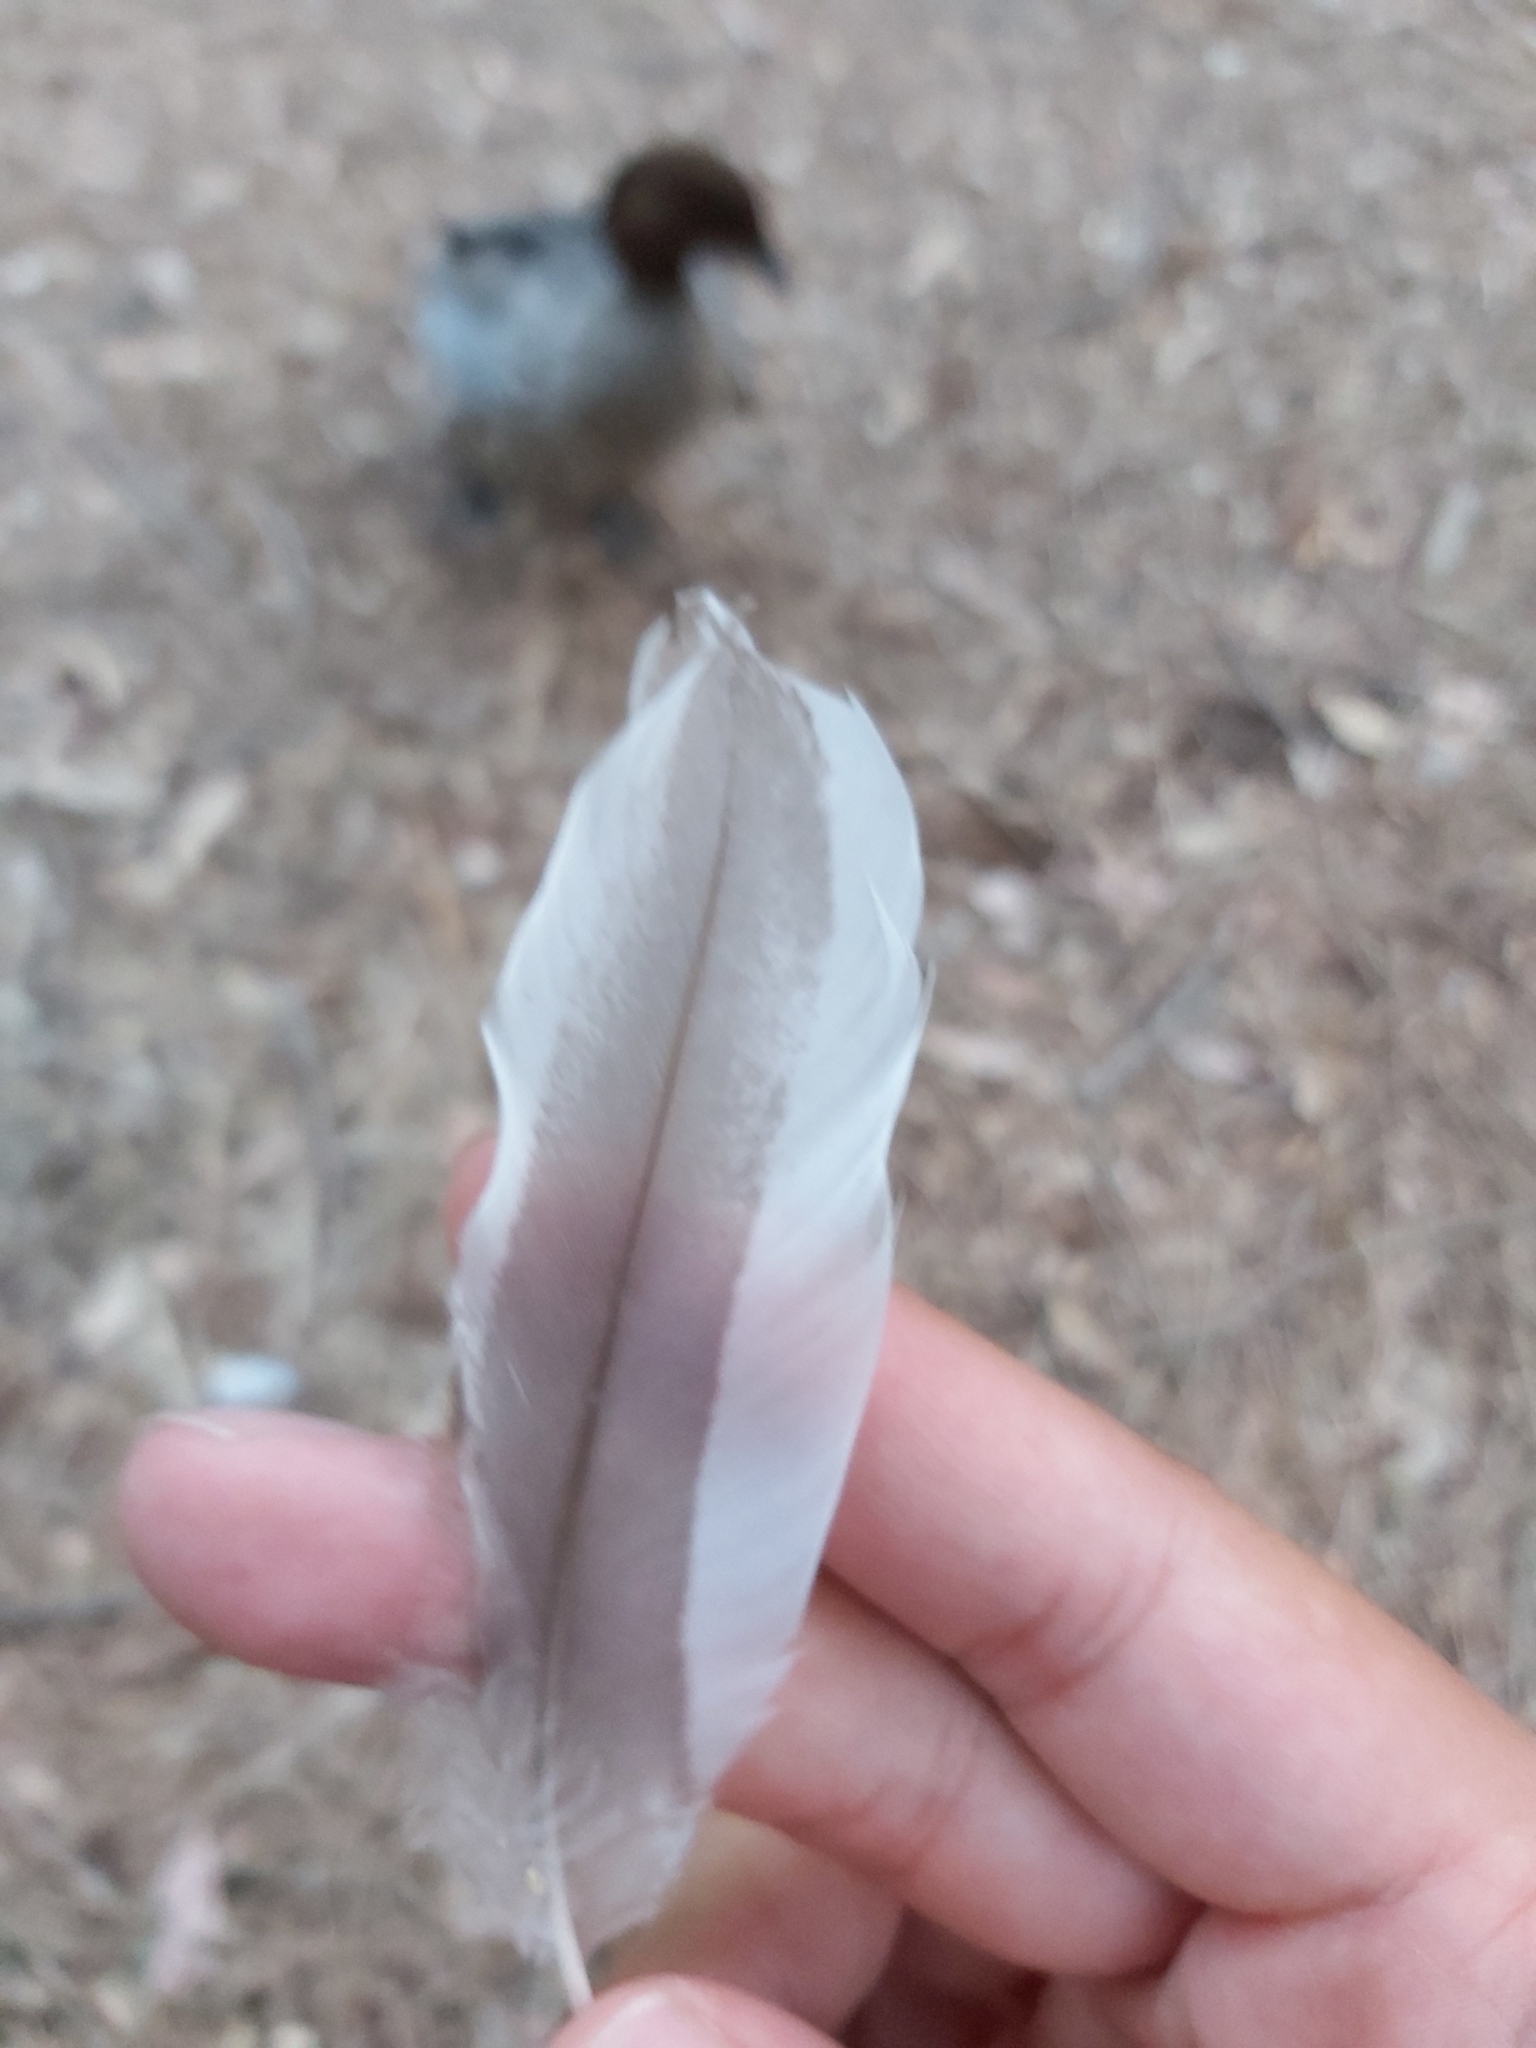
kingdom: Animalia
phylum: Chordata
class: Aves
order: Anseriformes
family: Anatidae
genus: Chenonetta
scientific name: Chenonetta jubata
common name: Maned duck
